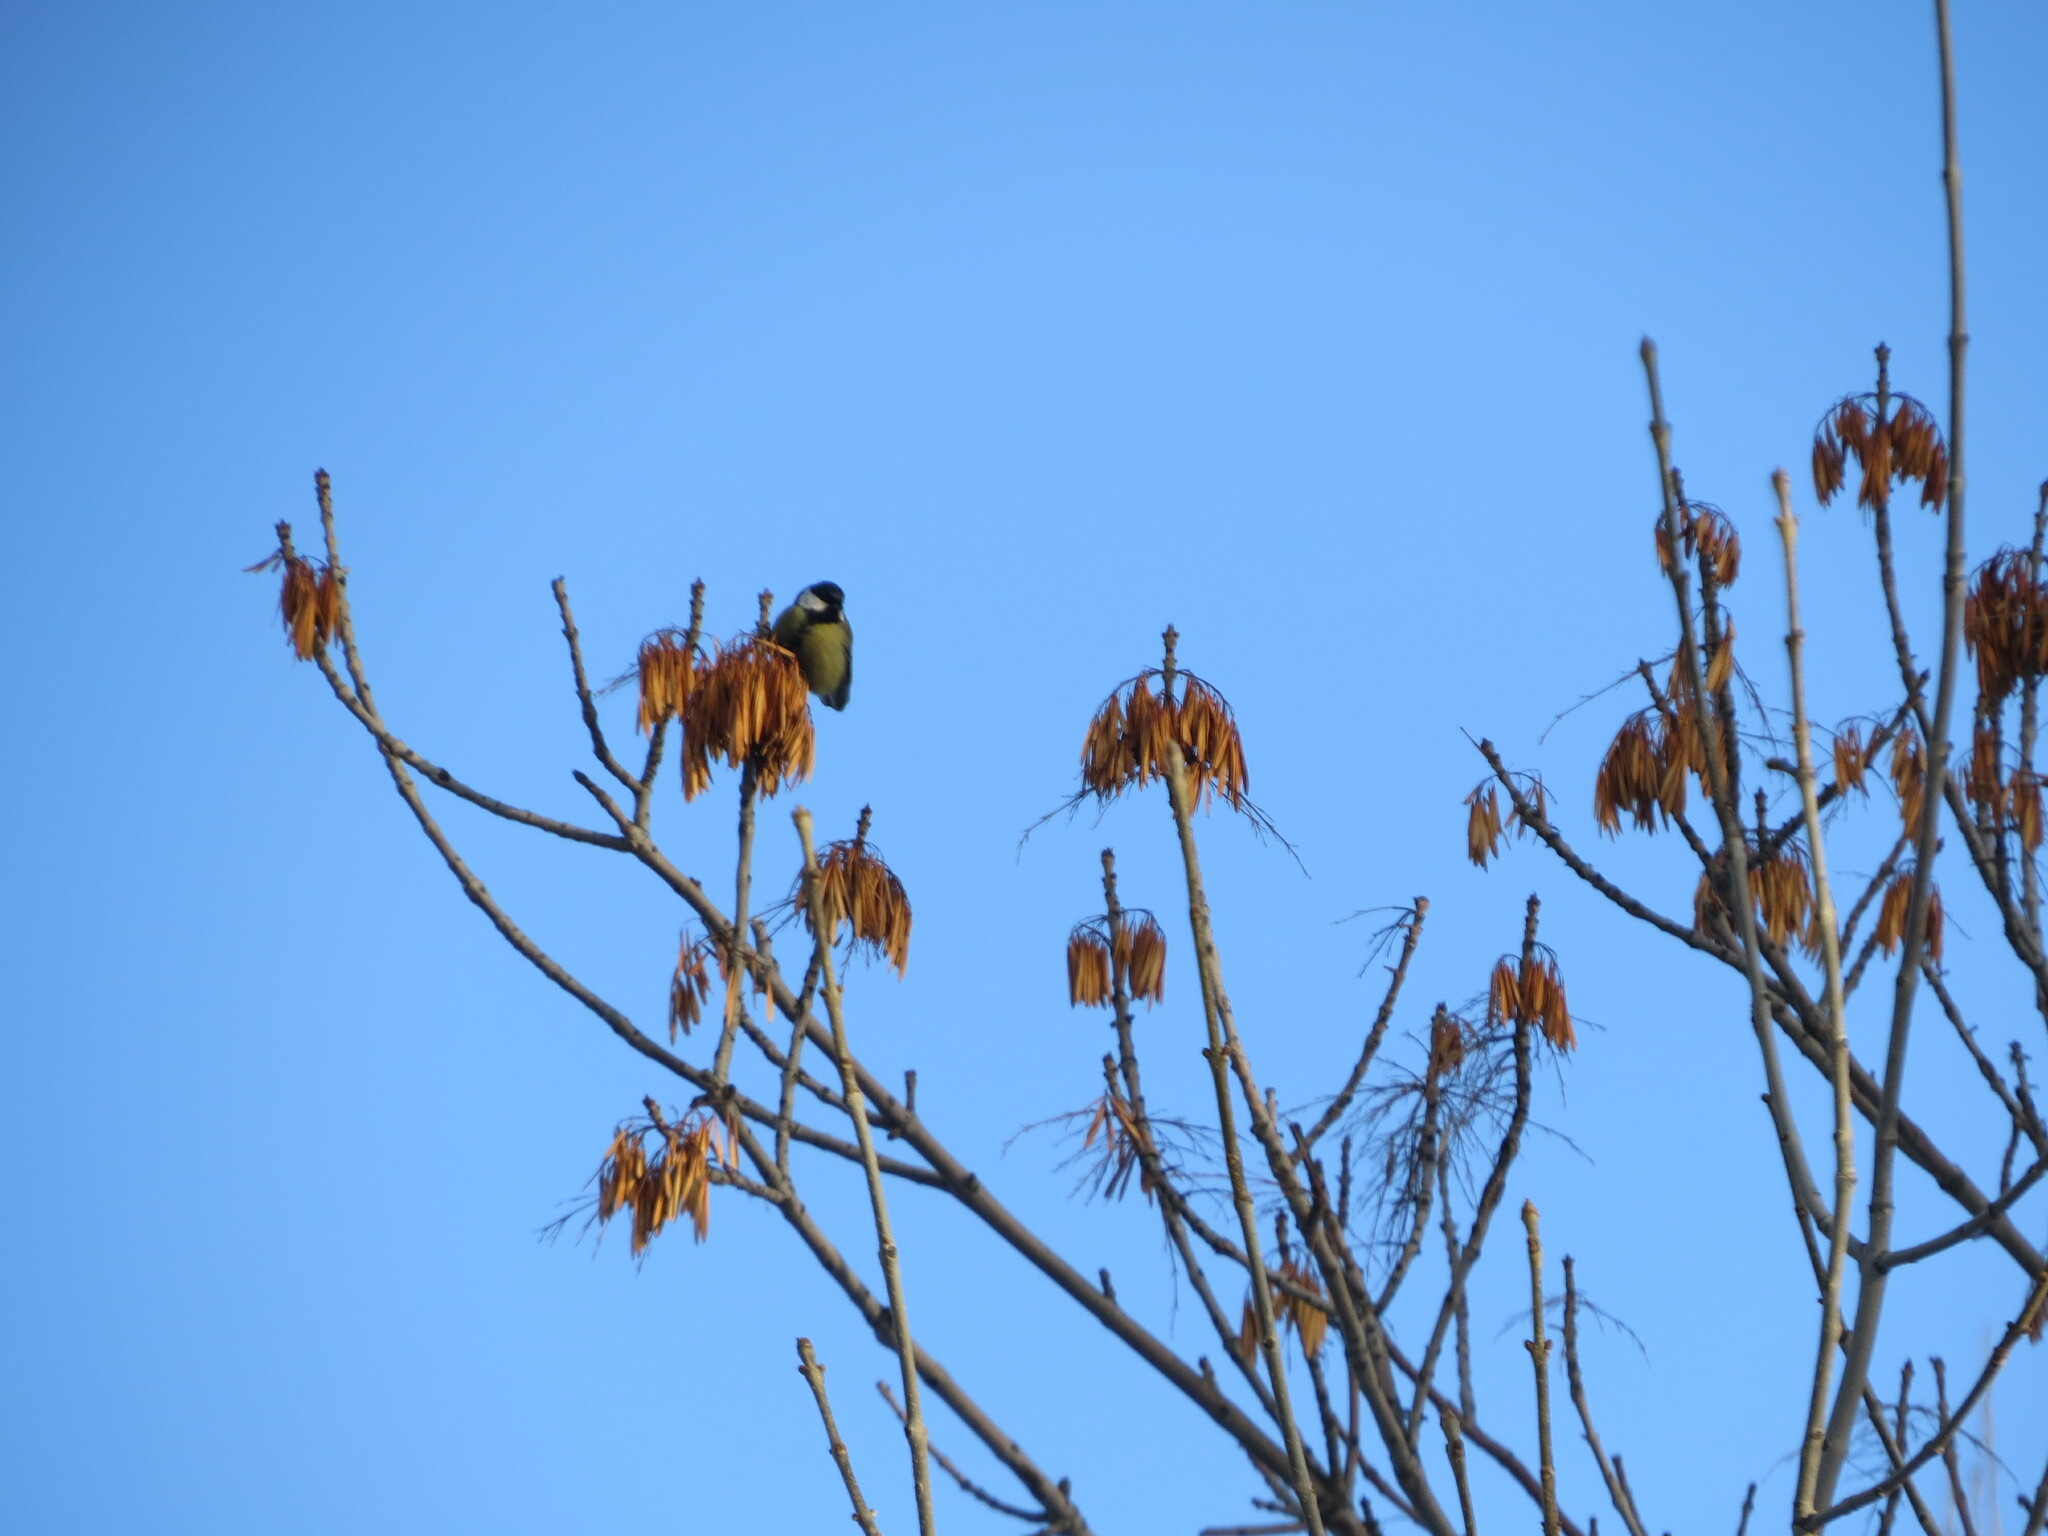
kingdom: Animalia
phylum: Chordata
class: Aves
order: Passeriformes
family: Paridae
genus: Parus
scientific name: Parus major
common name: Great tit
